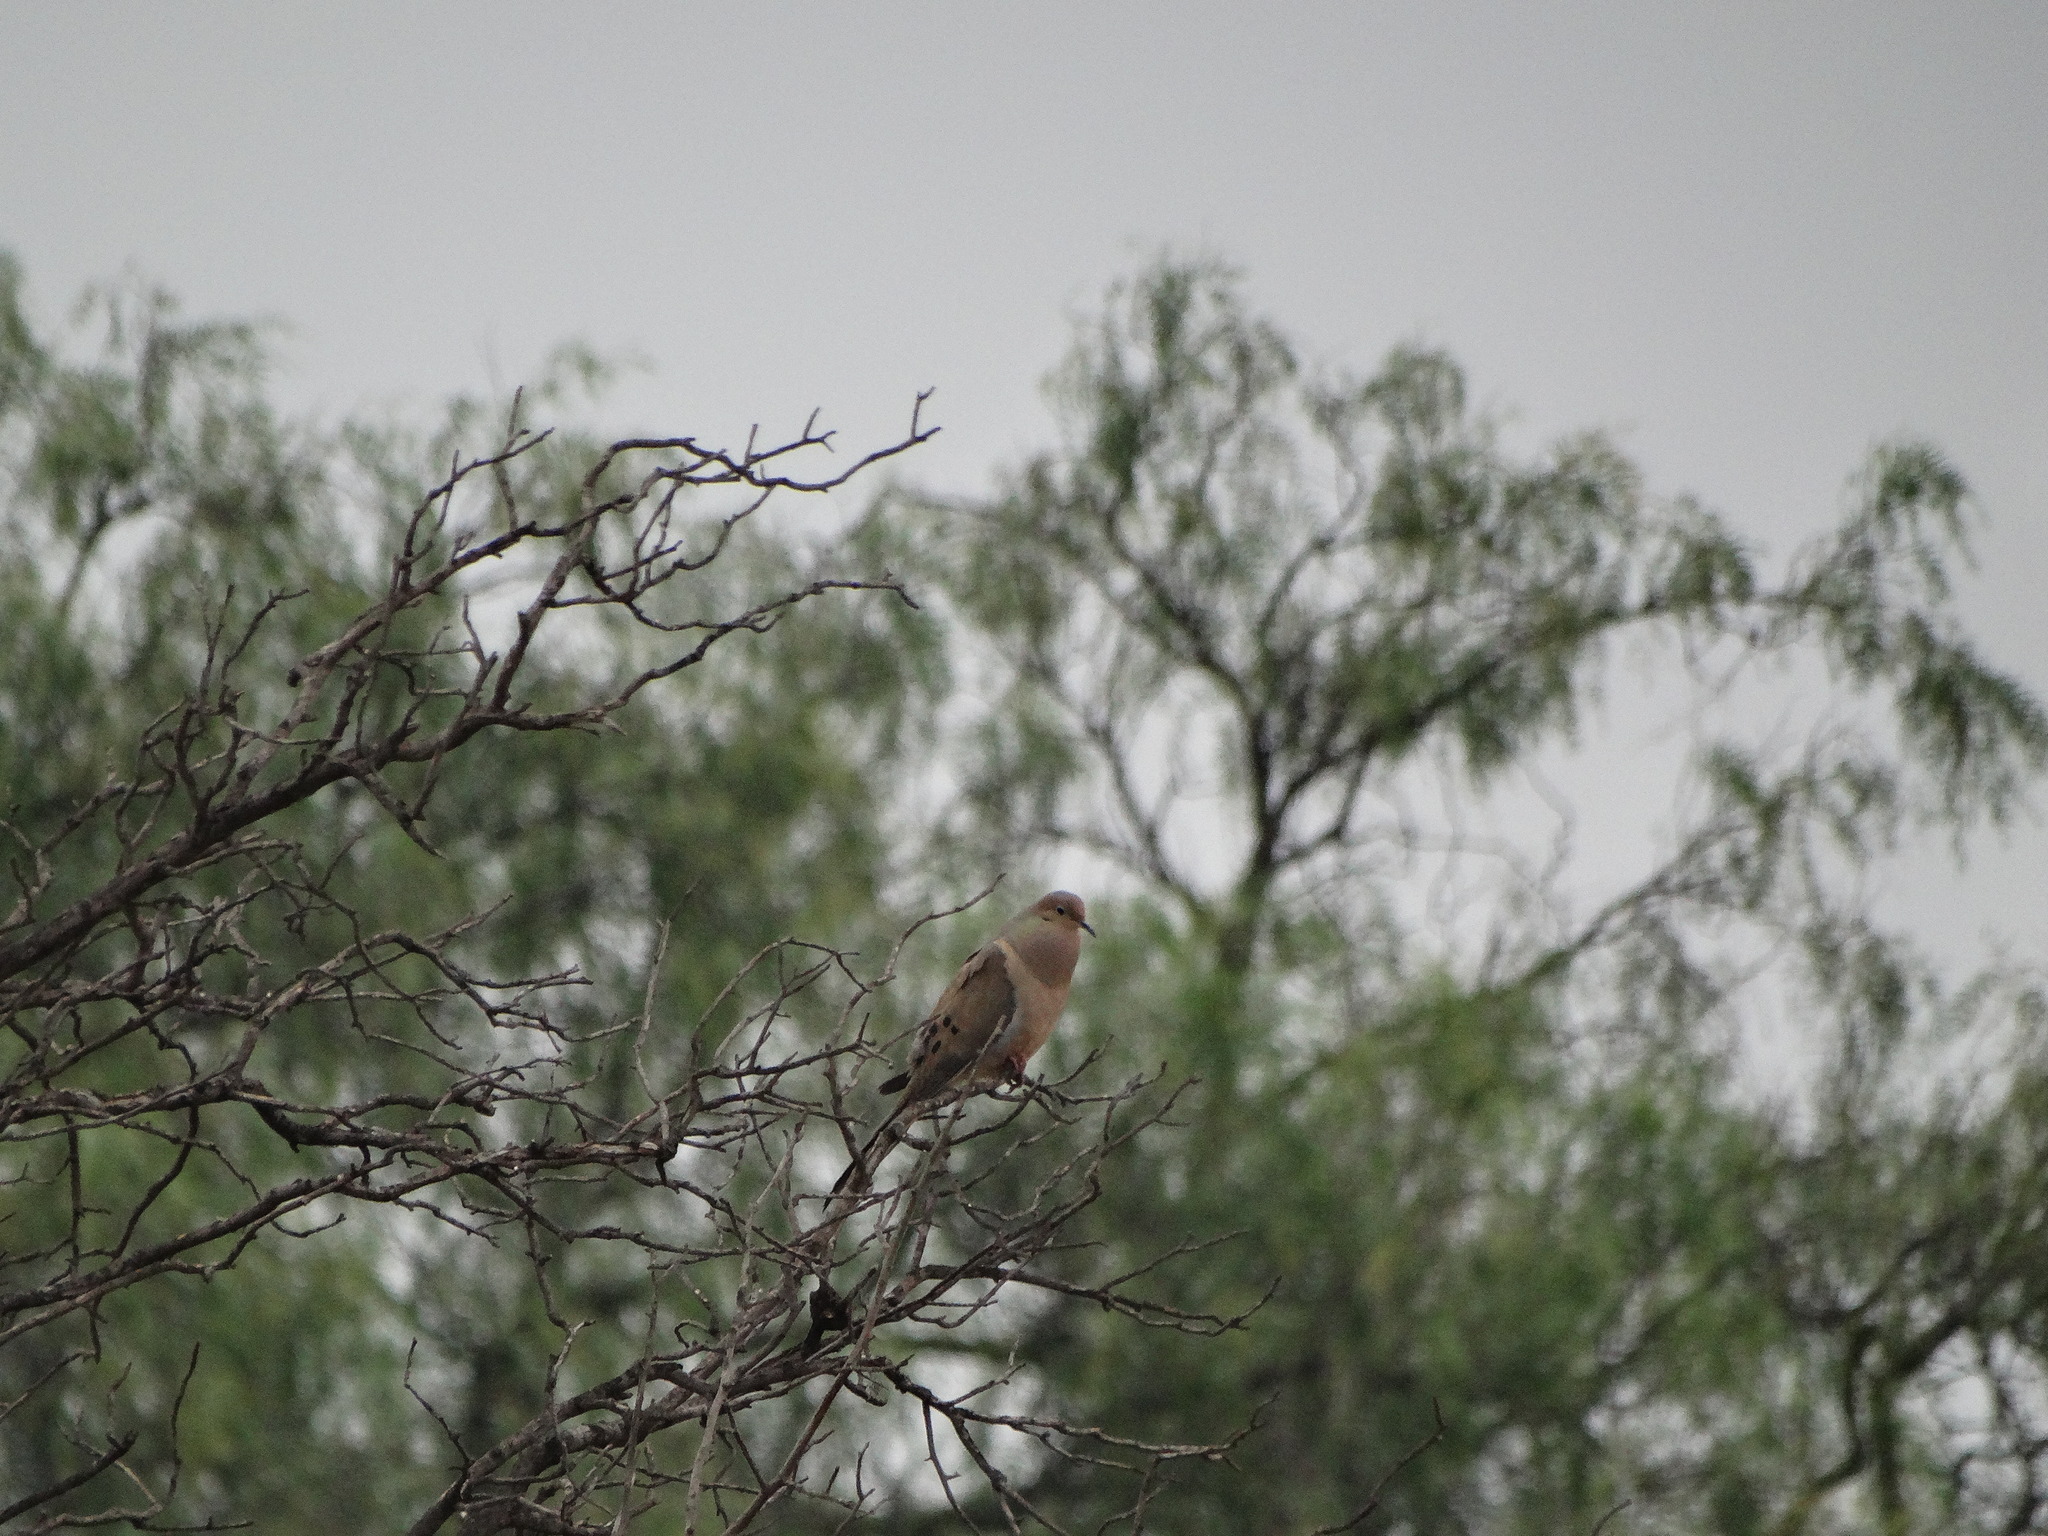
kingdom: Animalia
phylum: Chordata
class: Aves
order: Columbiformes
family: Columbidae
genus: Zenaida
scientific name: Zenaida macroura
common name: Mourning dove
